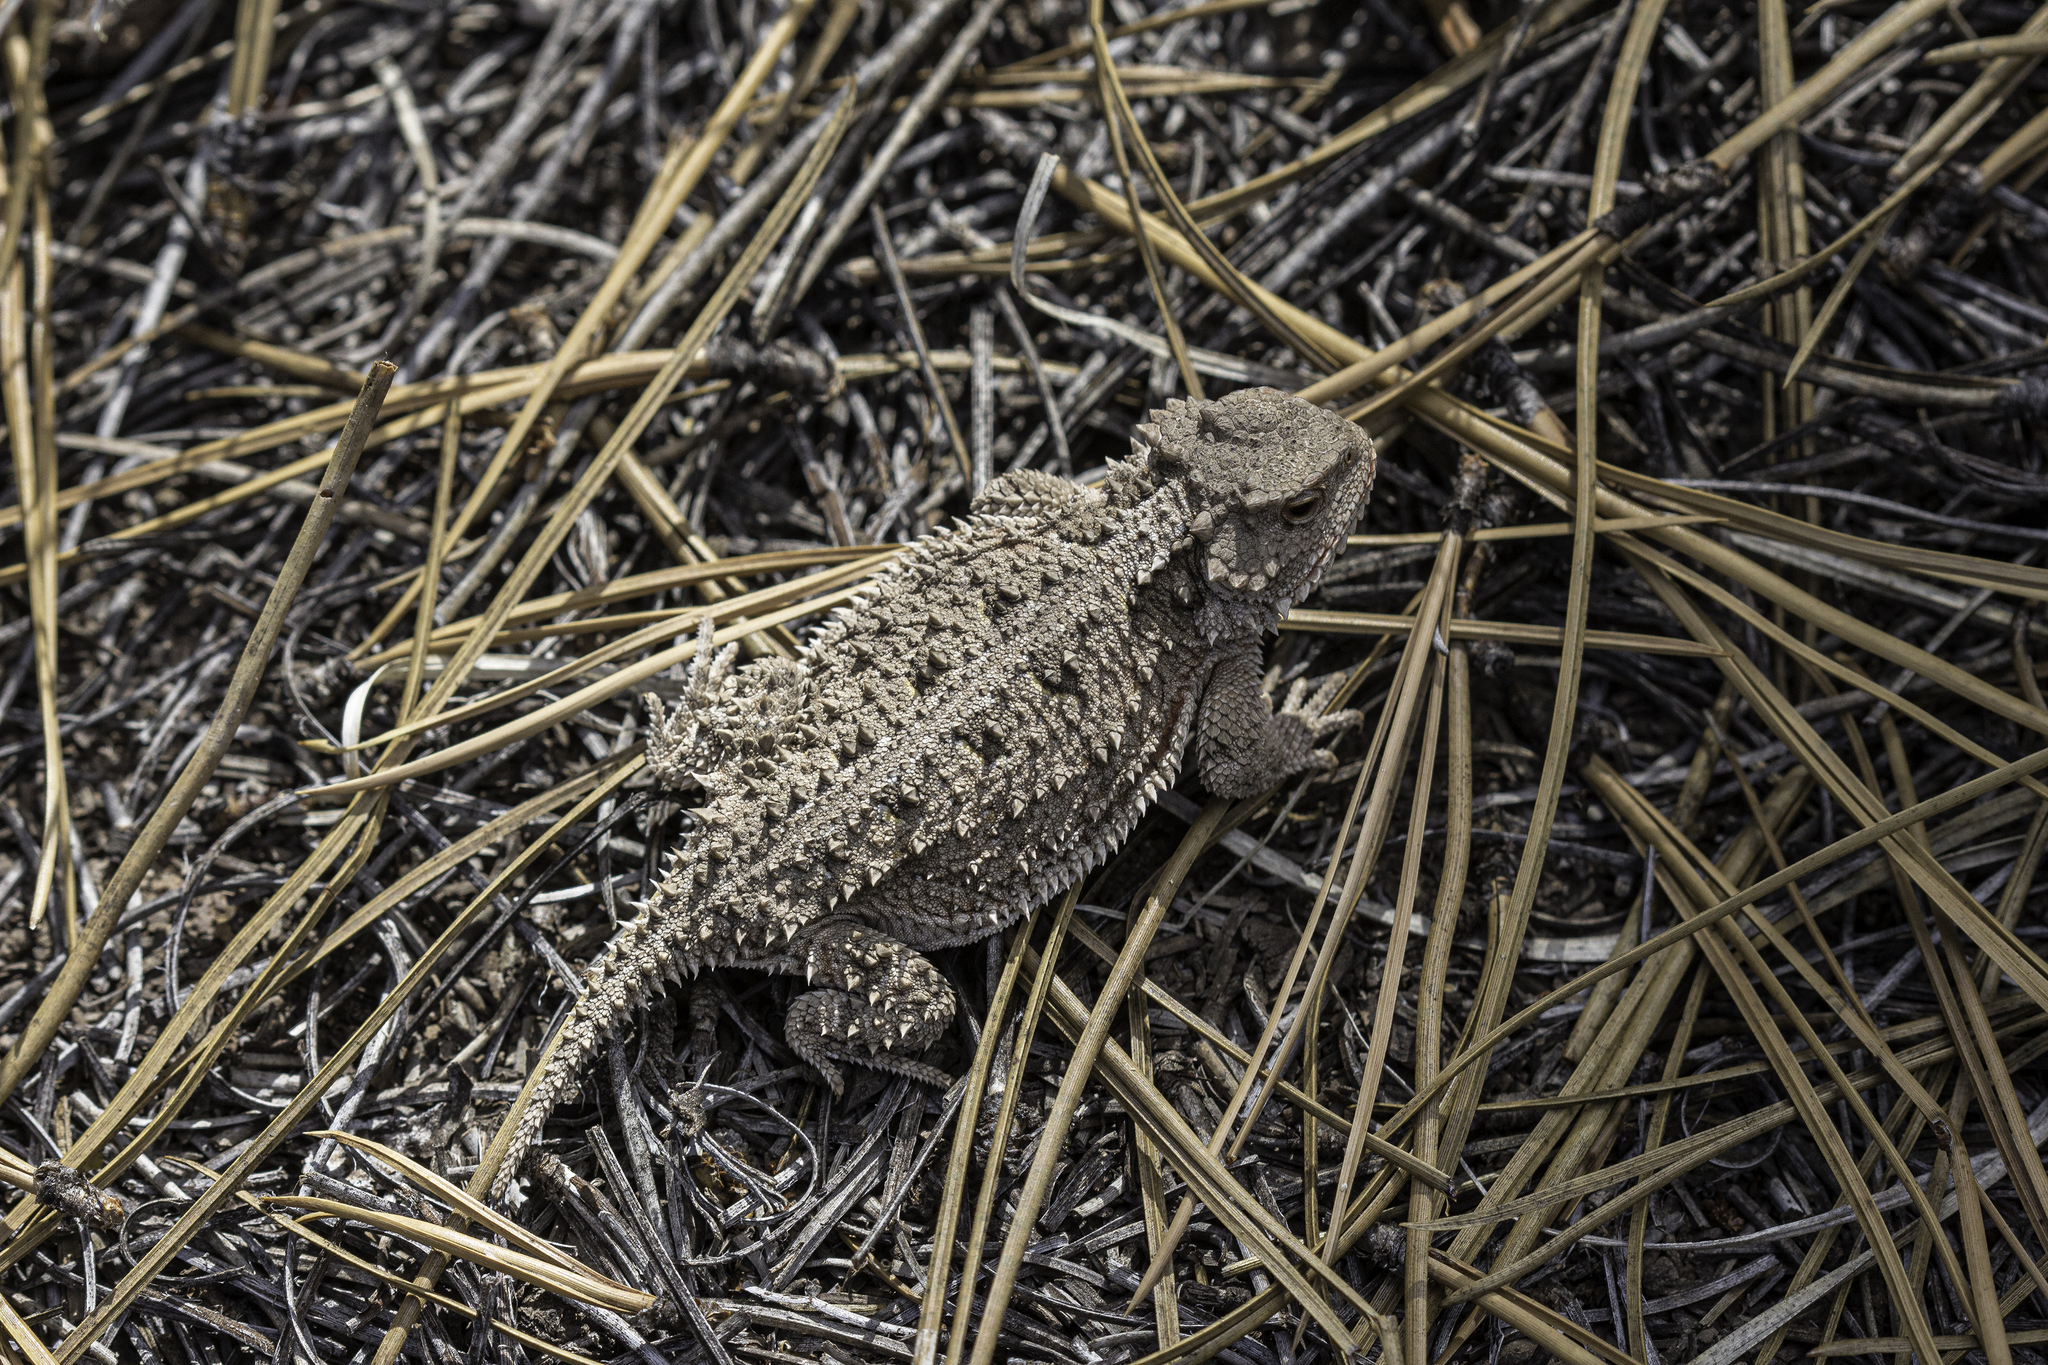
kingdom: Animalia
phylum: Chordata
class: Squamata
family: Phrynosomatidae
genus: Phrynosoma
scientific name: Phrynosoma hernandesi
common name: Greater short-horned lizard
